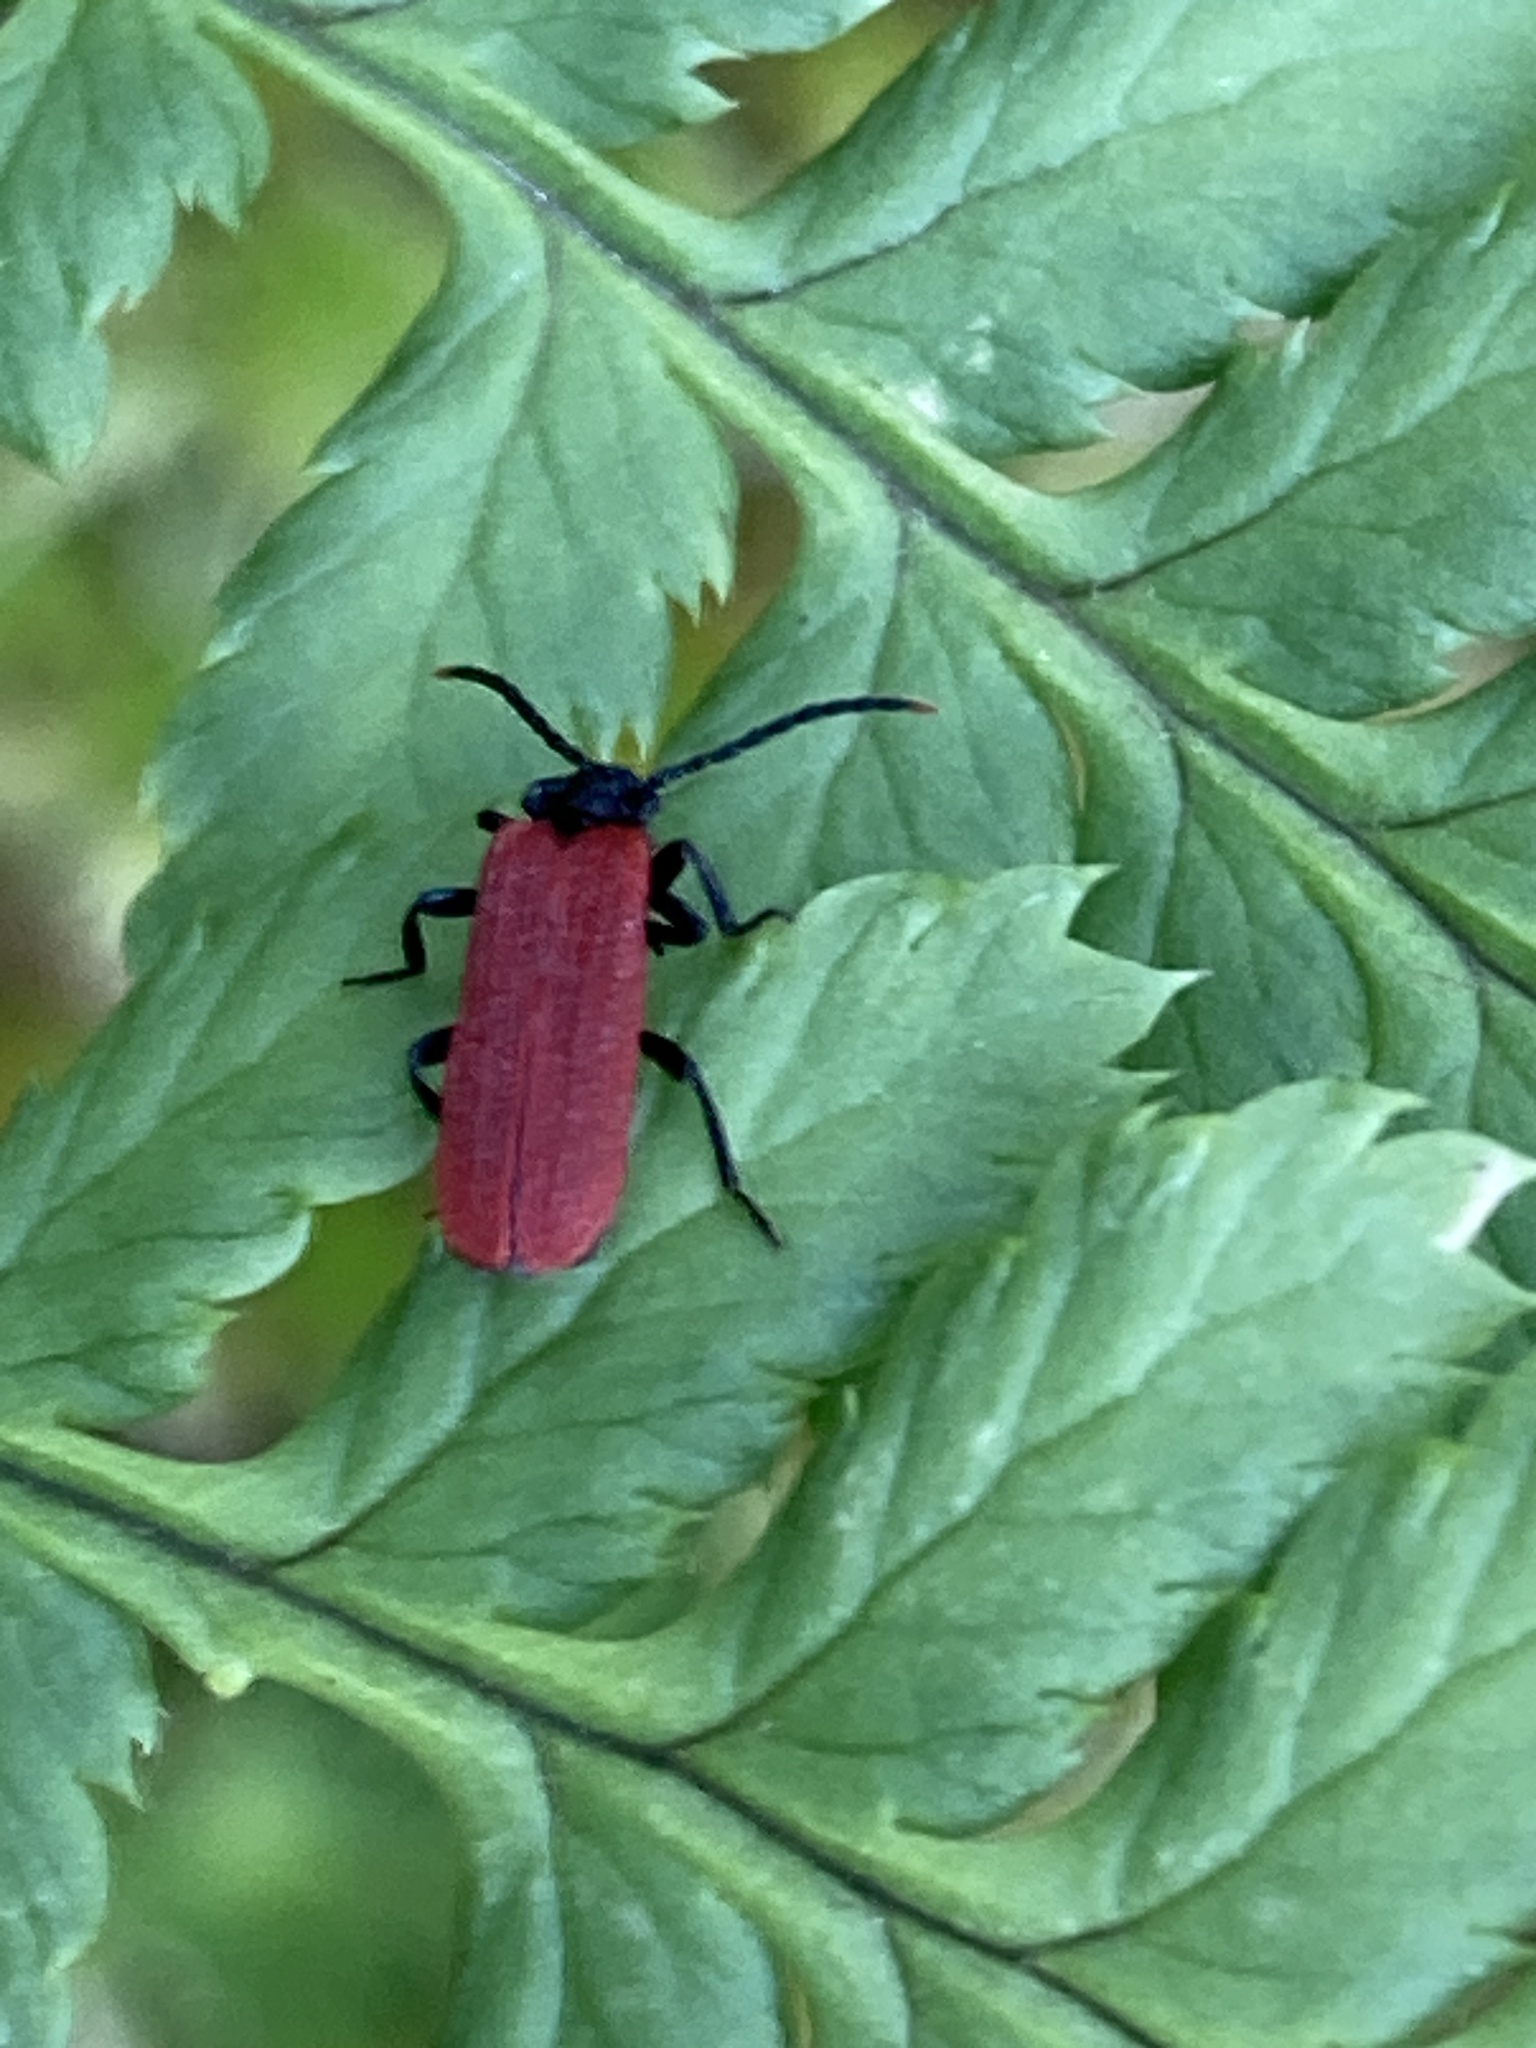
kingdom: Animalia
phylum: Arthropoda
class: Insecta
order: Coleoptera
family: Lycidae
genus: Platycis
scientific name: Platycis minutus
